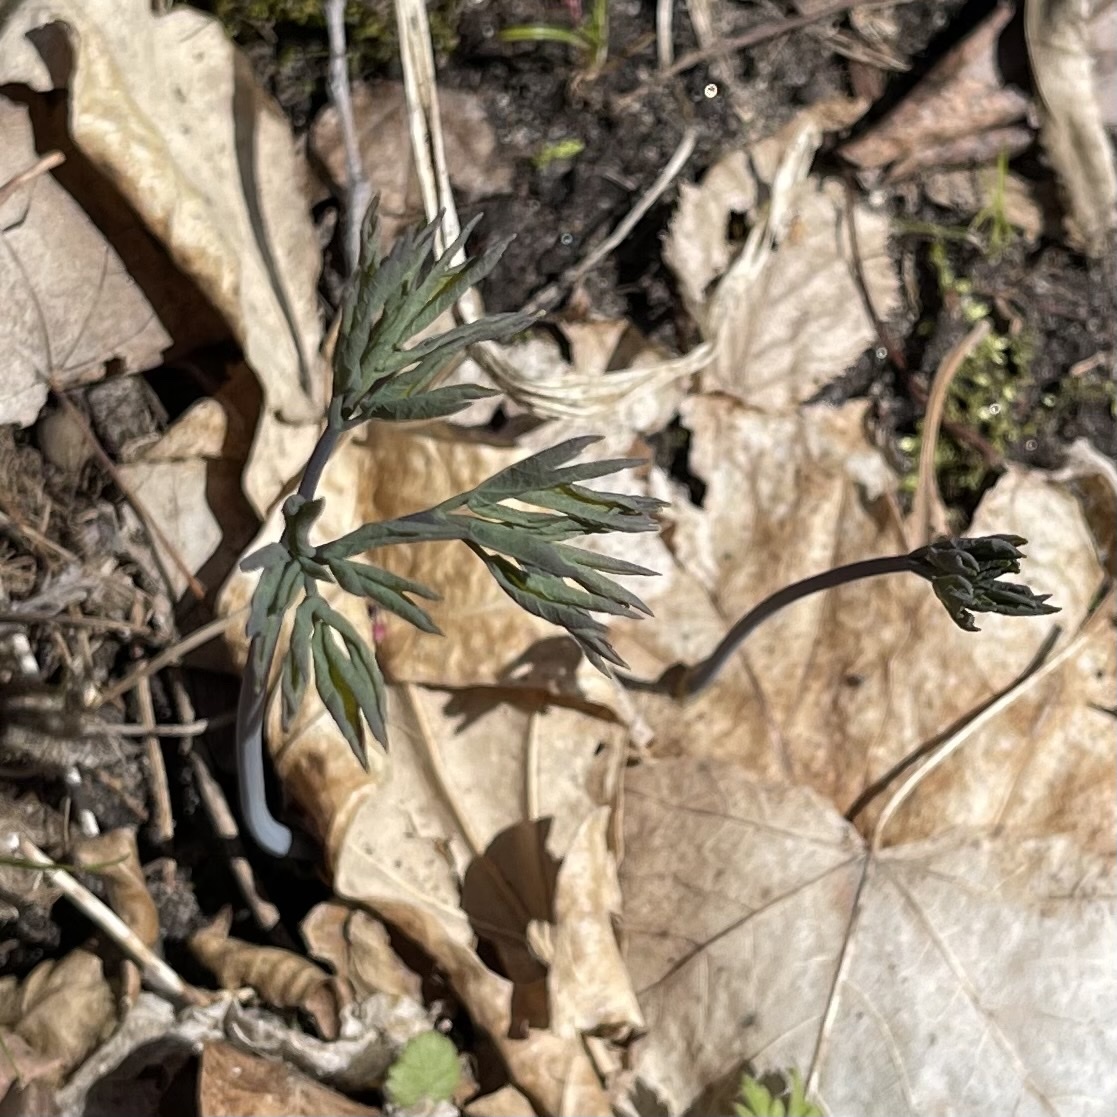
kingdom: Plantae
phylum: Tracheophyta
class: Magnoliopsida
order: Ranunculales
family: Berberidaceae
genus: Caulophyllum
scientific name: Caulophyllum thalictroides
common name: Blue cohosh
